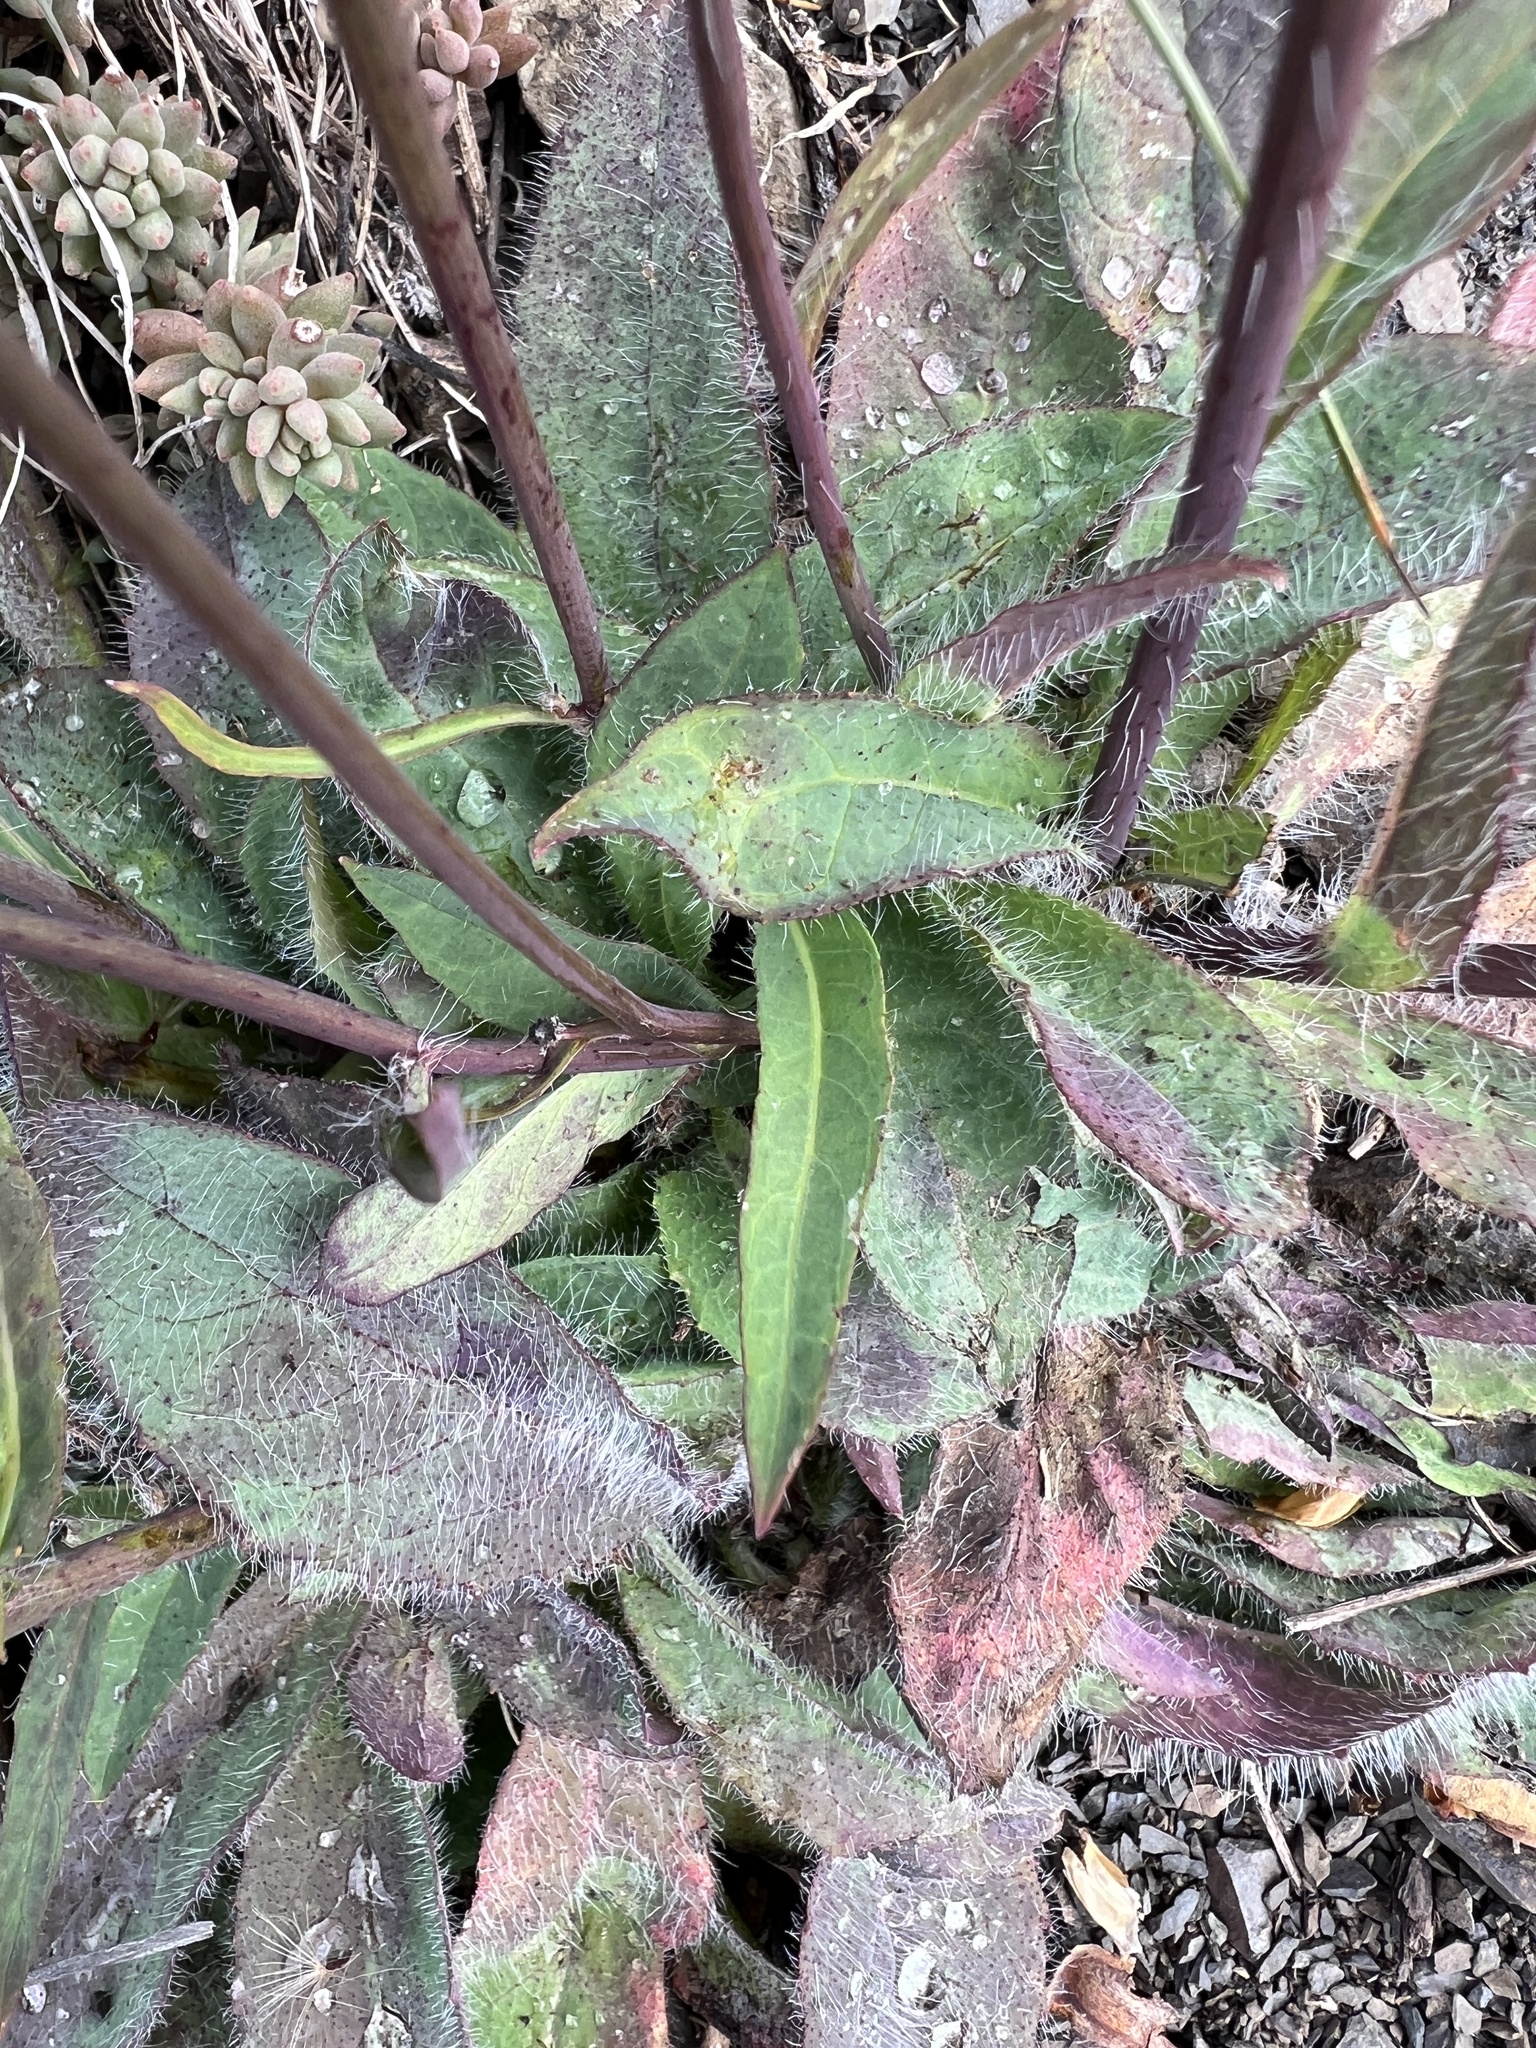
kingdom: Plantae
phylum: Tracheophyta
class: Magnoliopsida
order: Asterales
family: Asteraceae
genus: Hieracium
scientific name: Hieracium albiflorum
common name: White hawkweed
